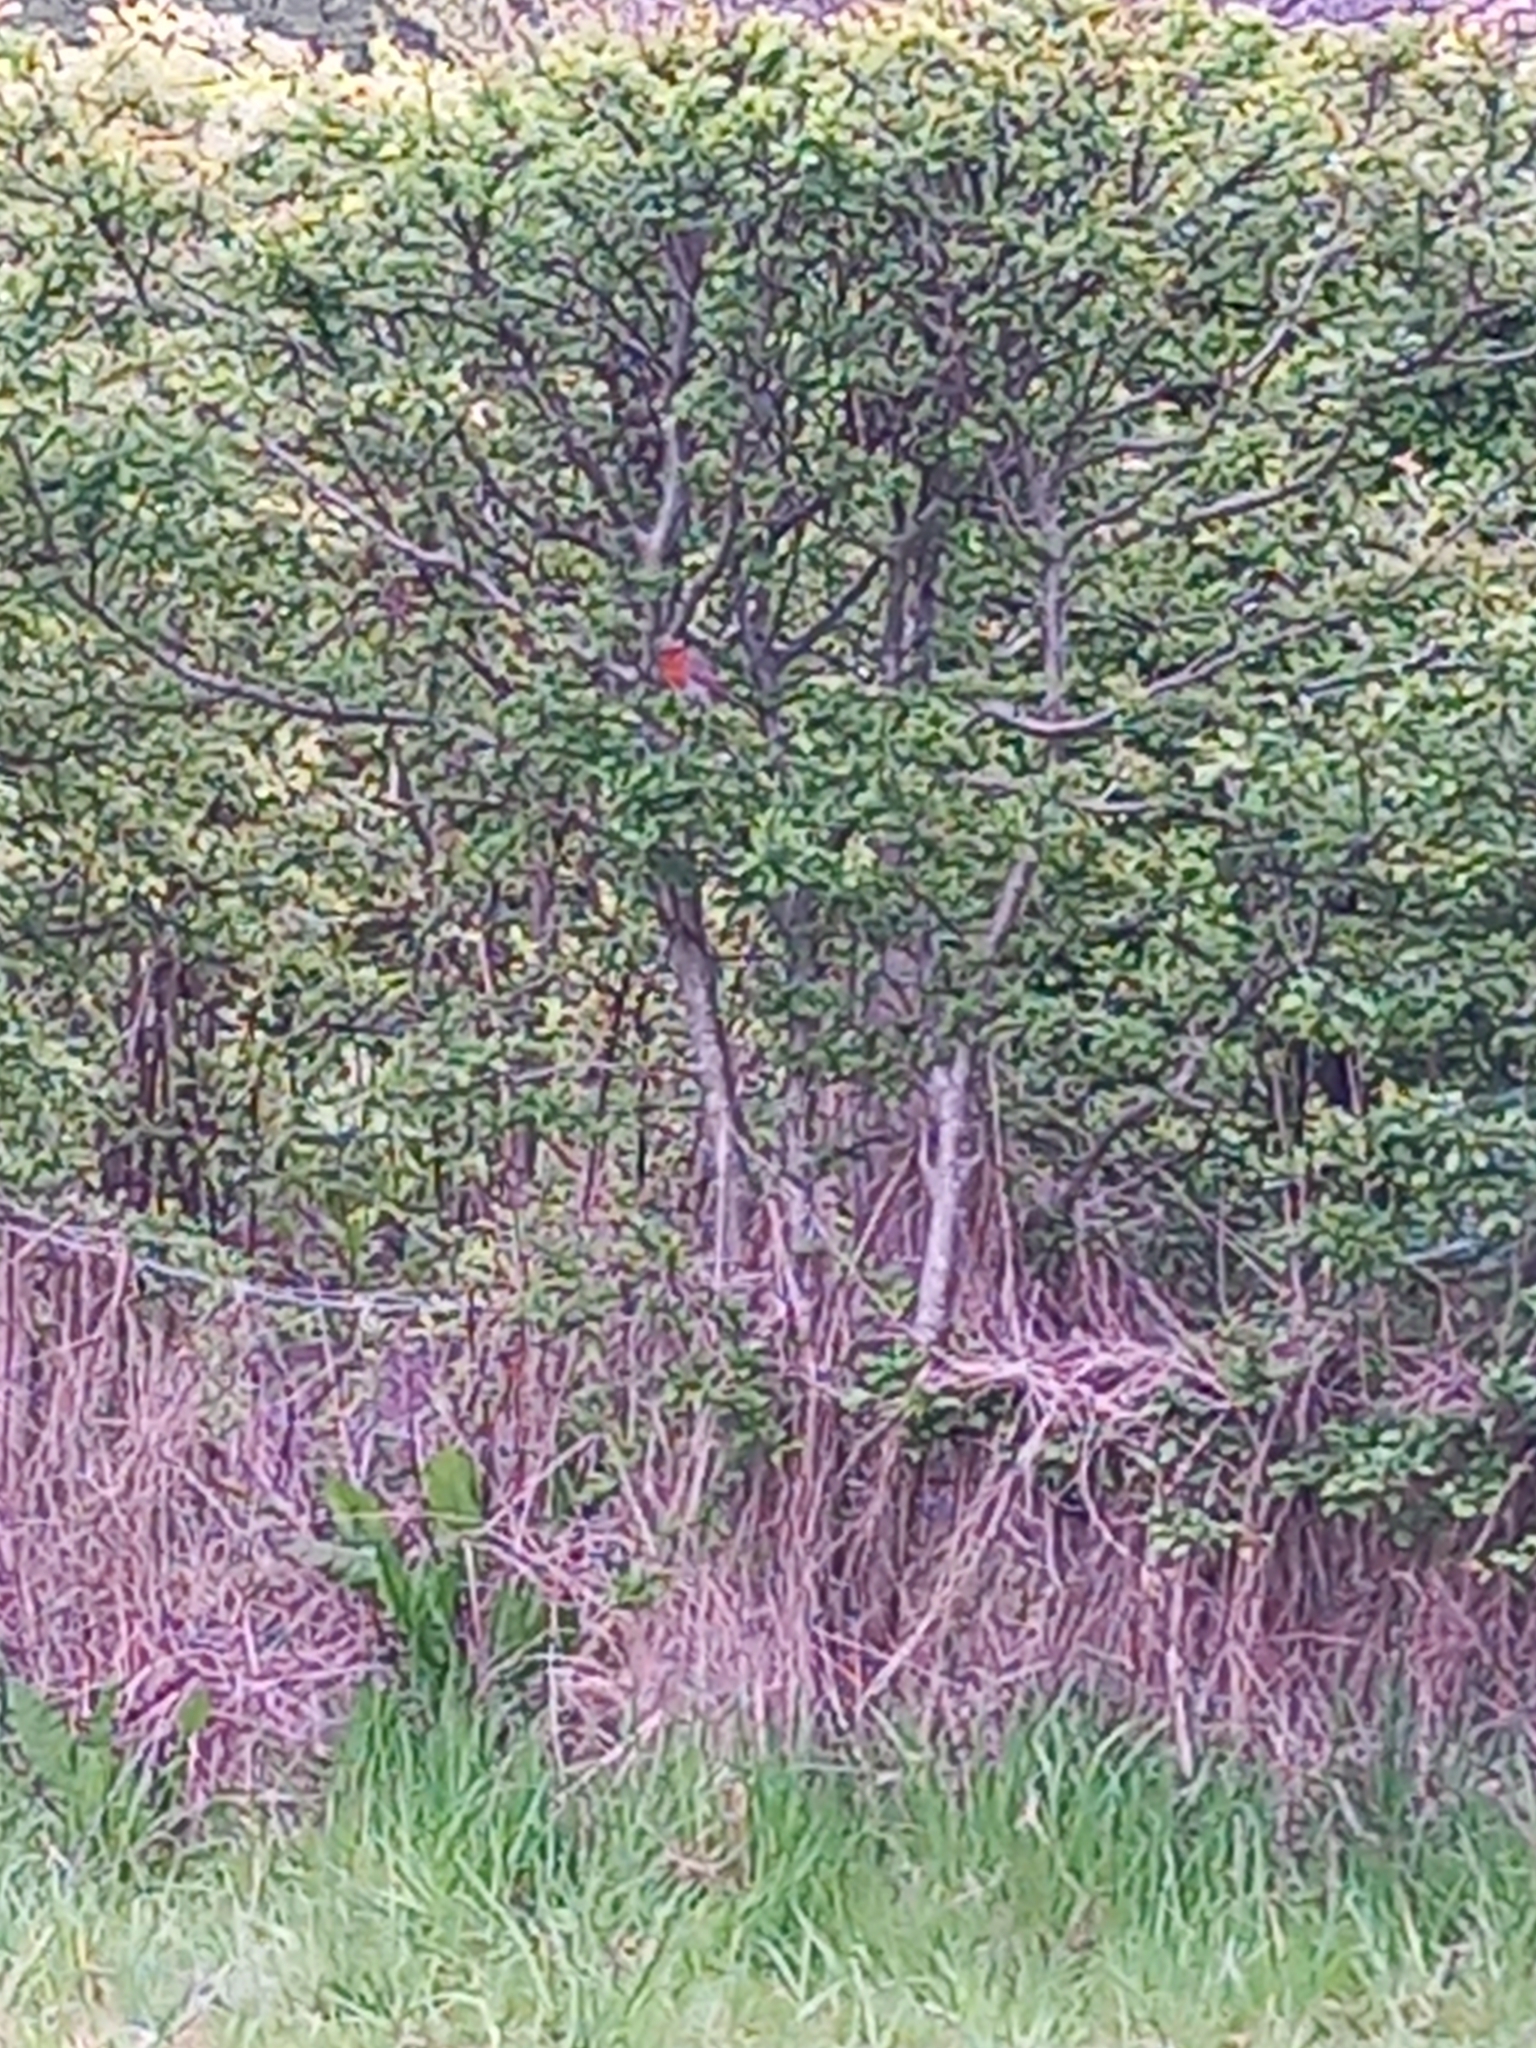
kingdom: Animalia
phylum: Chordata
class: Aves
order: Passeriformes
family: Muscicapidae
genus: Erithacus
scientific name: Erithacus rubecula
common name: European robin
